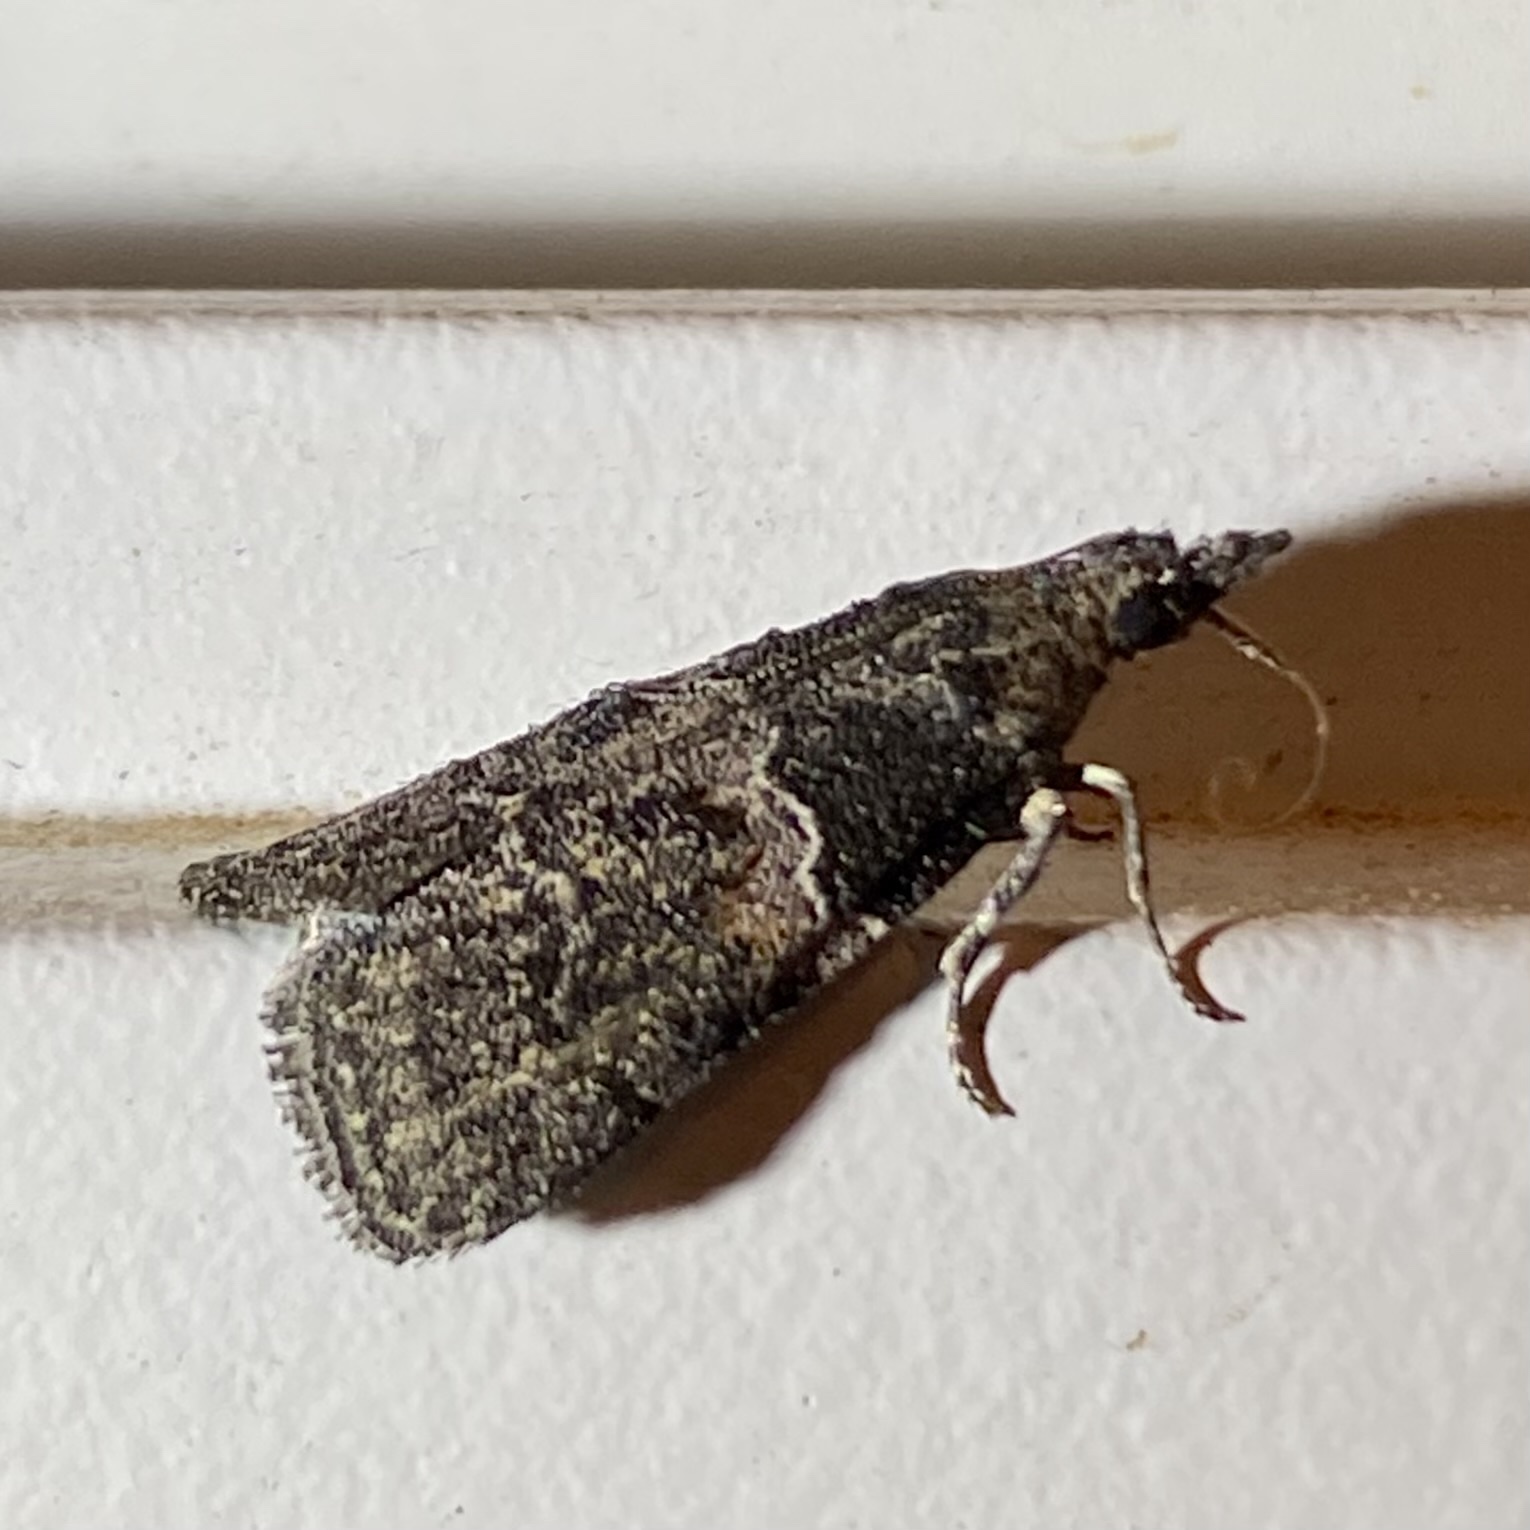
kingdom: Animalia
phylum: Arthropoda
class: Insecta
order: Lepidoptera
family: Pyralidae
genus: Satole
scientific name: Satole ligniperdalis
